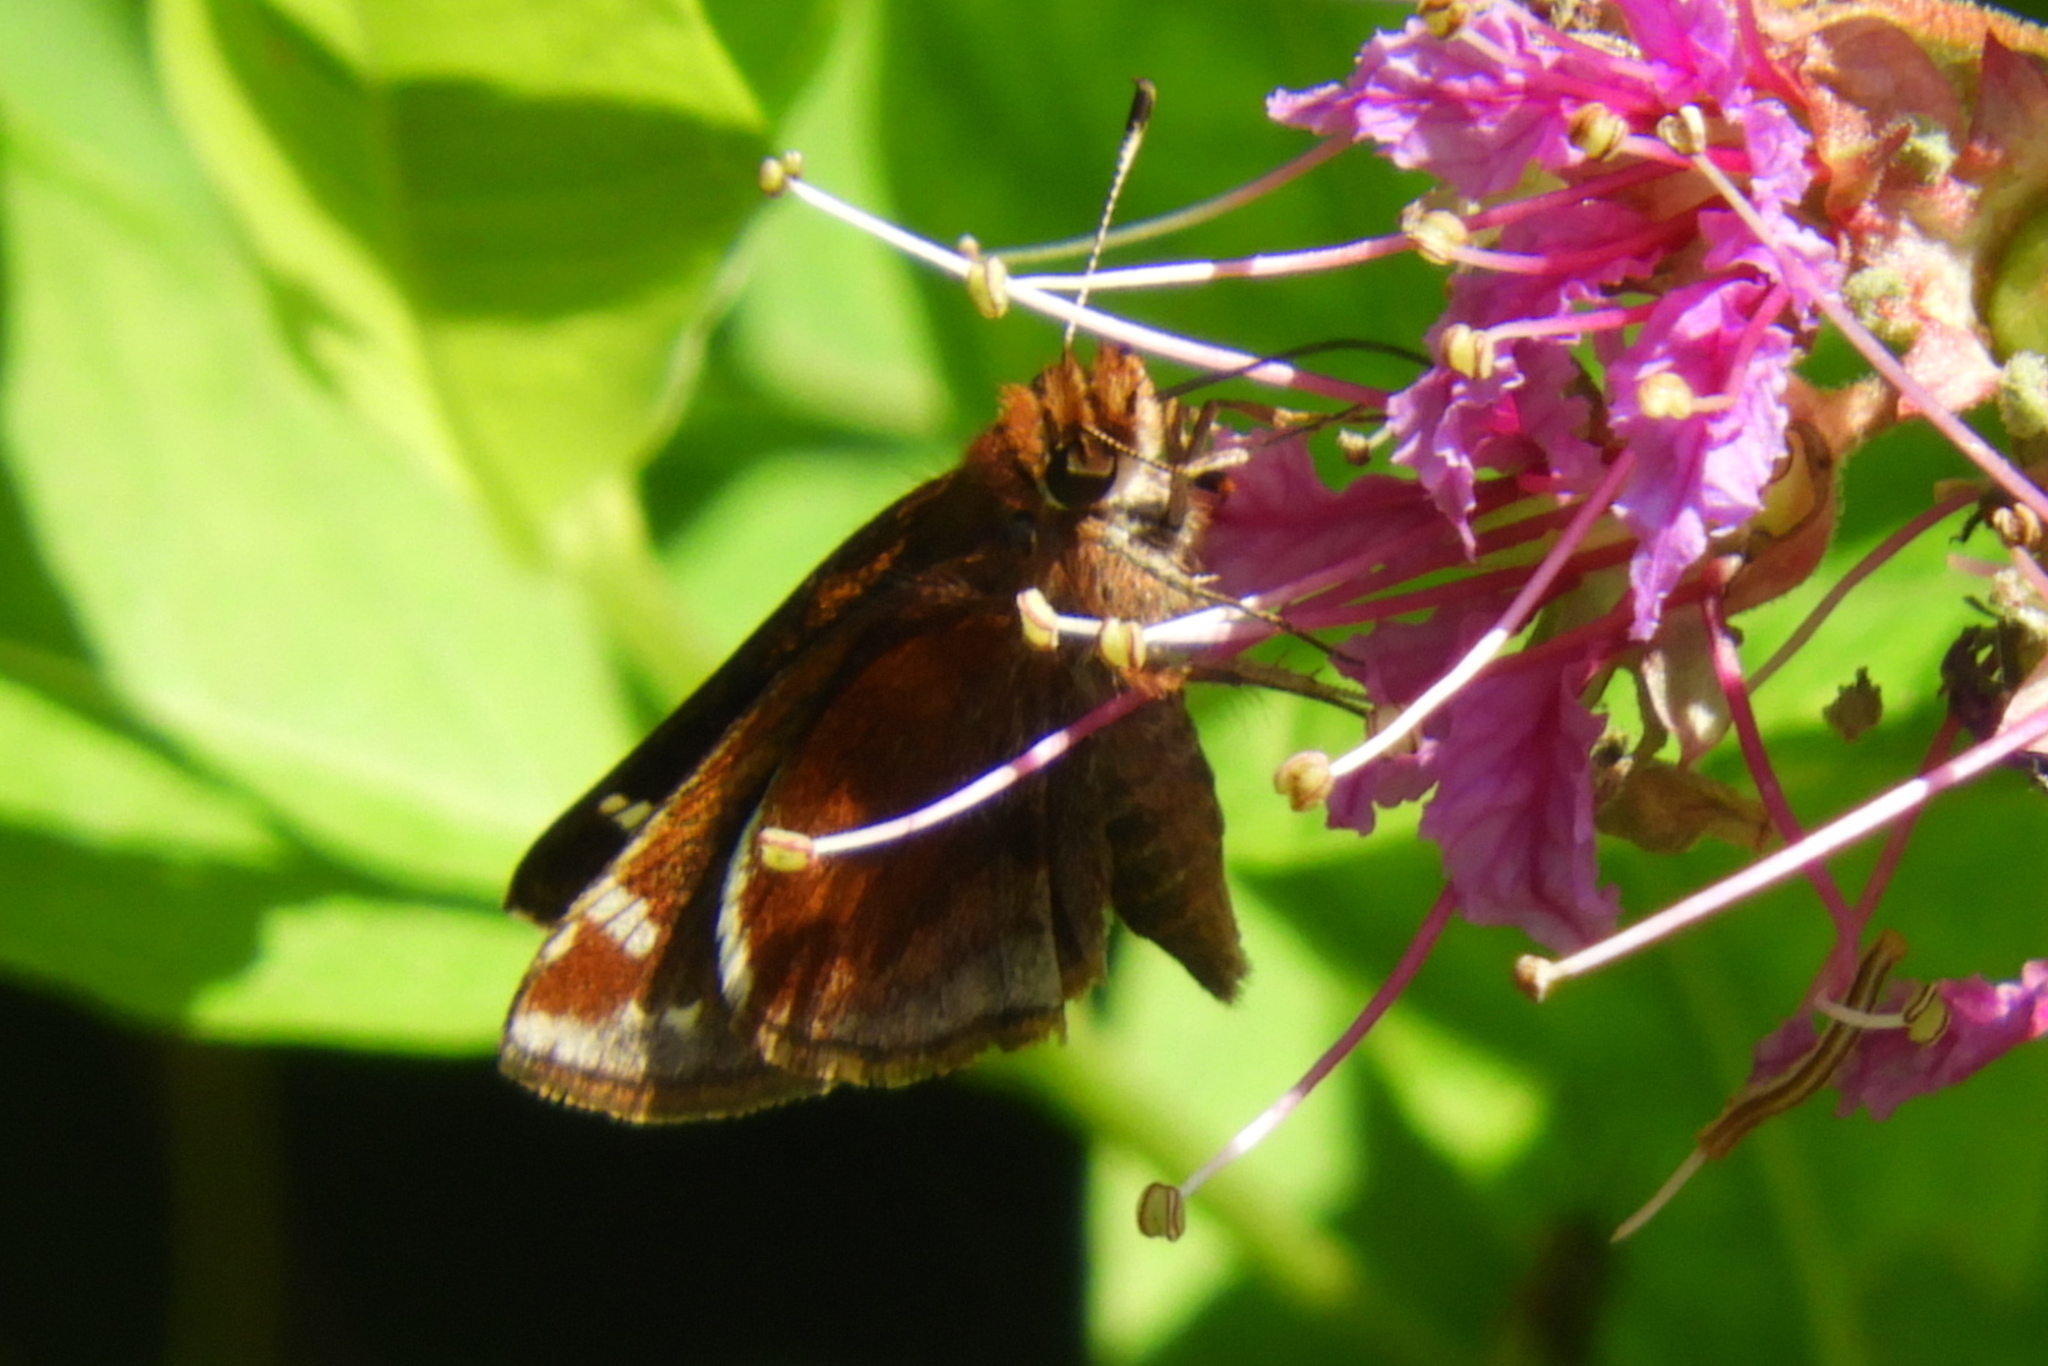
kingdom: Animalia
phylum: Arthropoda
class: Insecta
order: Lepidoptera
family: Hesperiidae
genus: Lon
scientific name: Lon zabulon
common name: Zabulon skipper
